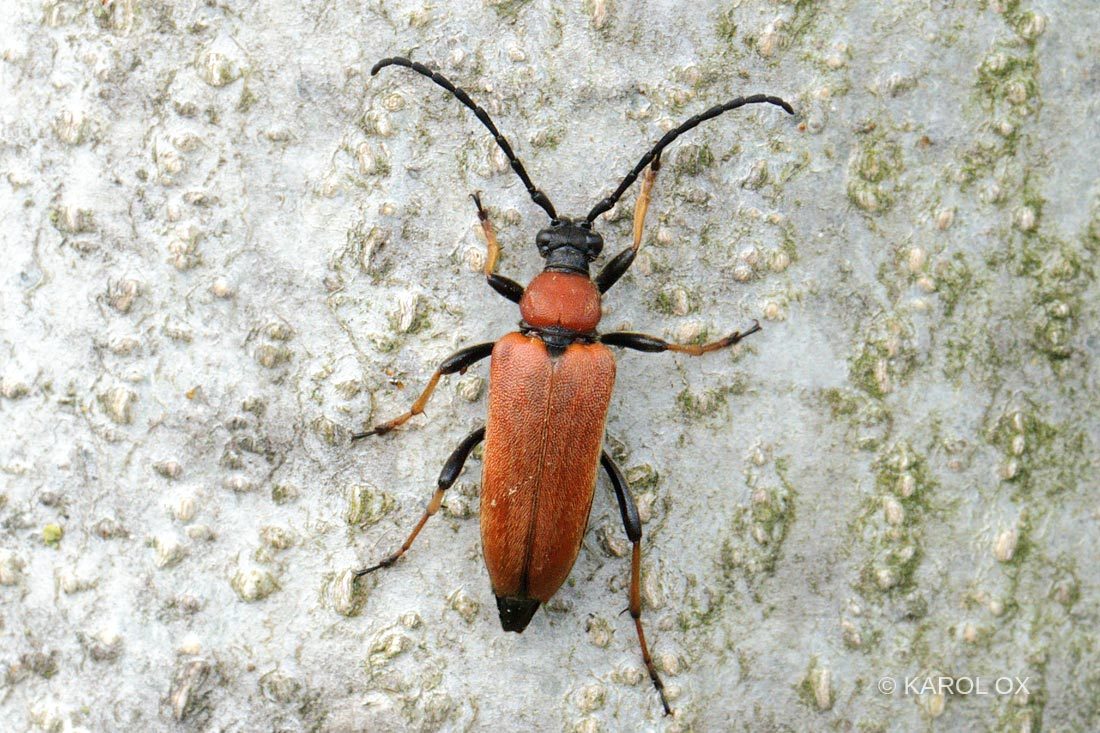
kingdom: Animalia
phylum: Arthropoda
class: Insecta
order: Coleoptera
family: Cerambycidae
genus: Stictoleptura
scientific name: Stictoleptura rubra
